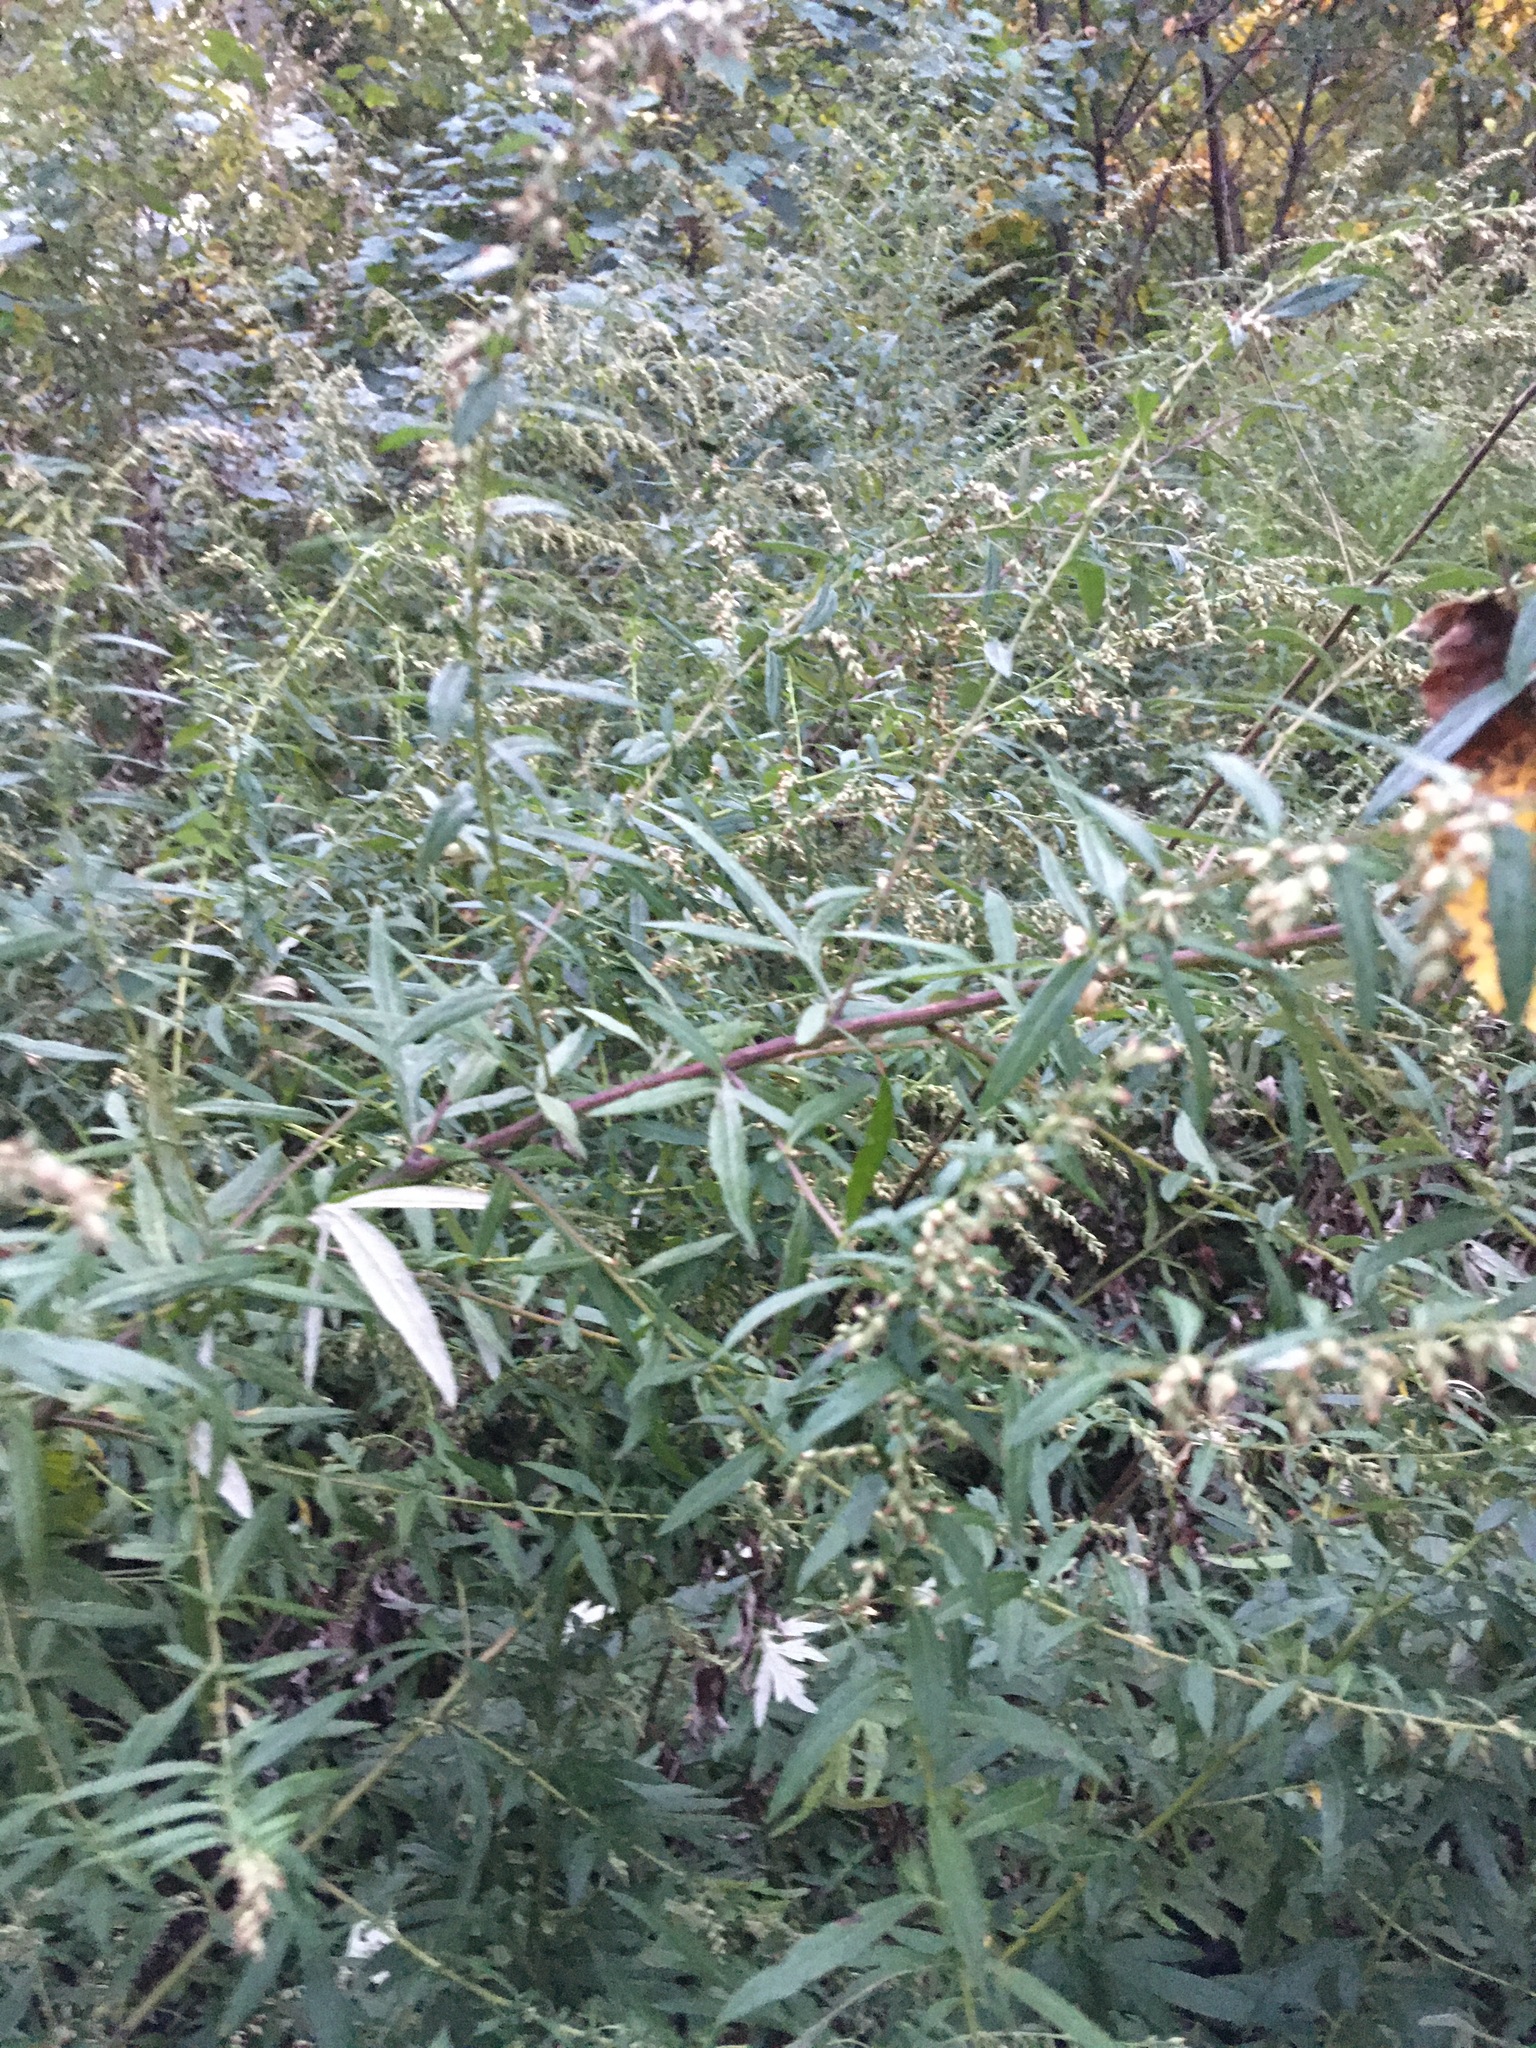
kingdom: Plantae
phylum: Tracheophyta
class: Magnoliopsida
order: Asterales
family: Asteraceae
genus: Artemisia
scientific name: Artemisia vulgaris
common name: Mugwort
